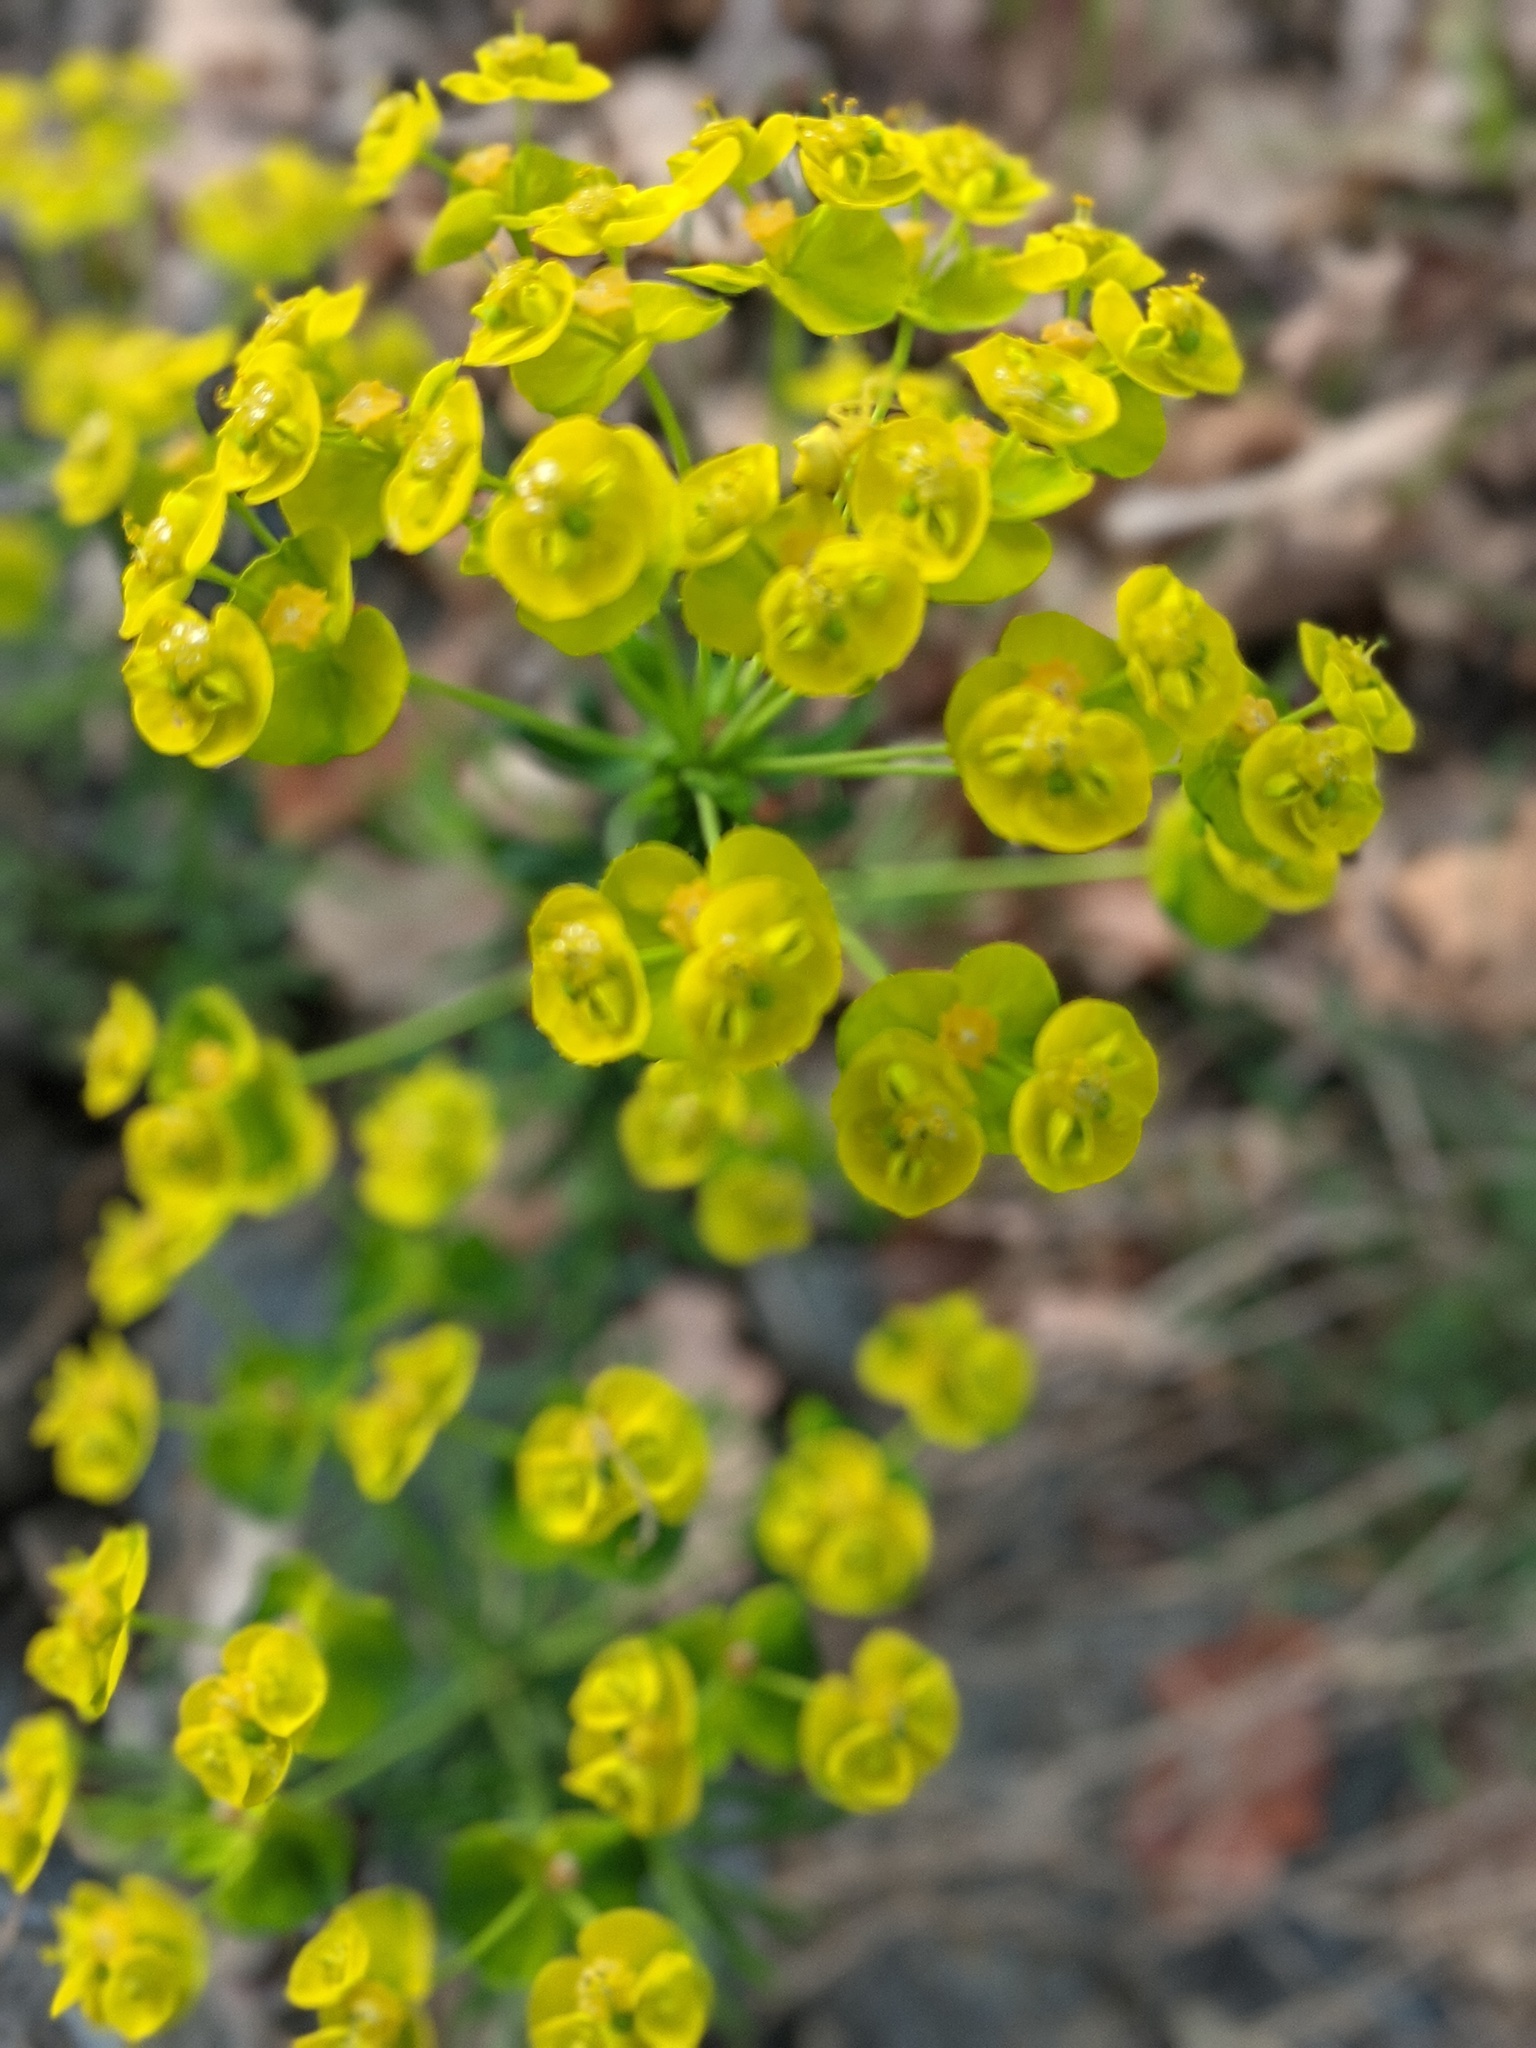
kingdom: Plantae
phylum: Tracheophyta
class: Magnoliopsida
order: Malpighiales
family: Euphorbiaceae
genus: Euphorbia
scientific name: Euphorbia cyparissias
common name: Cypress spurge
